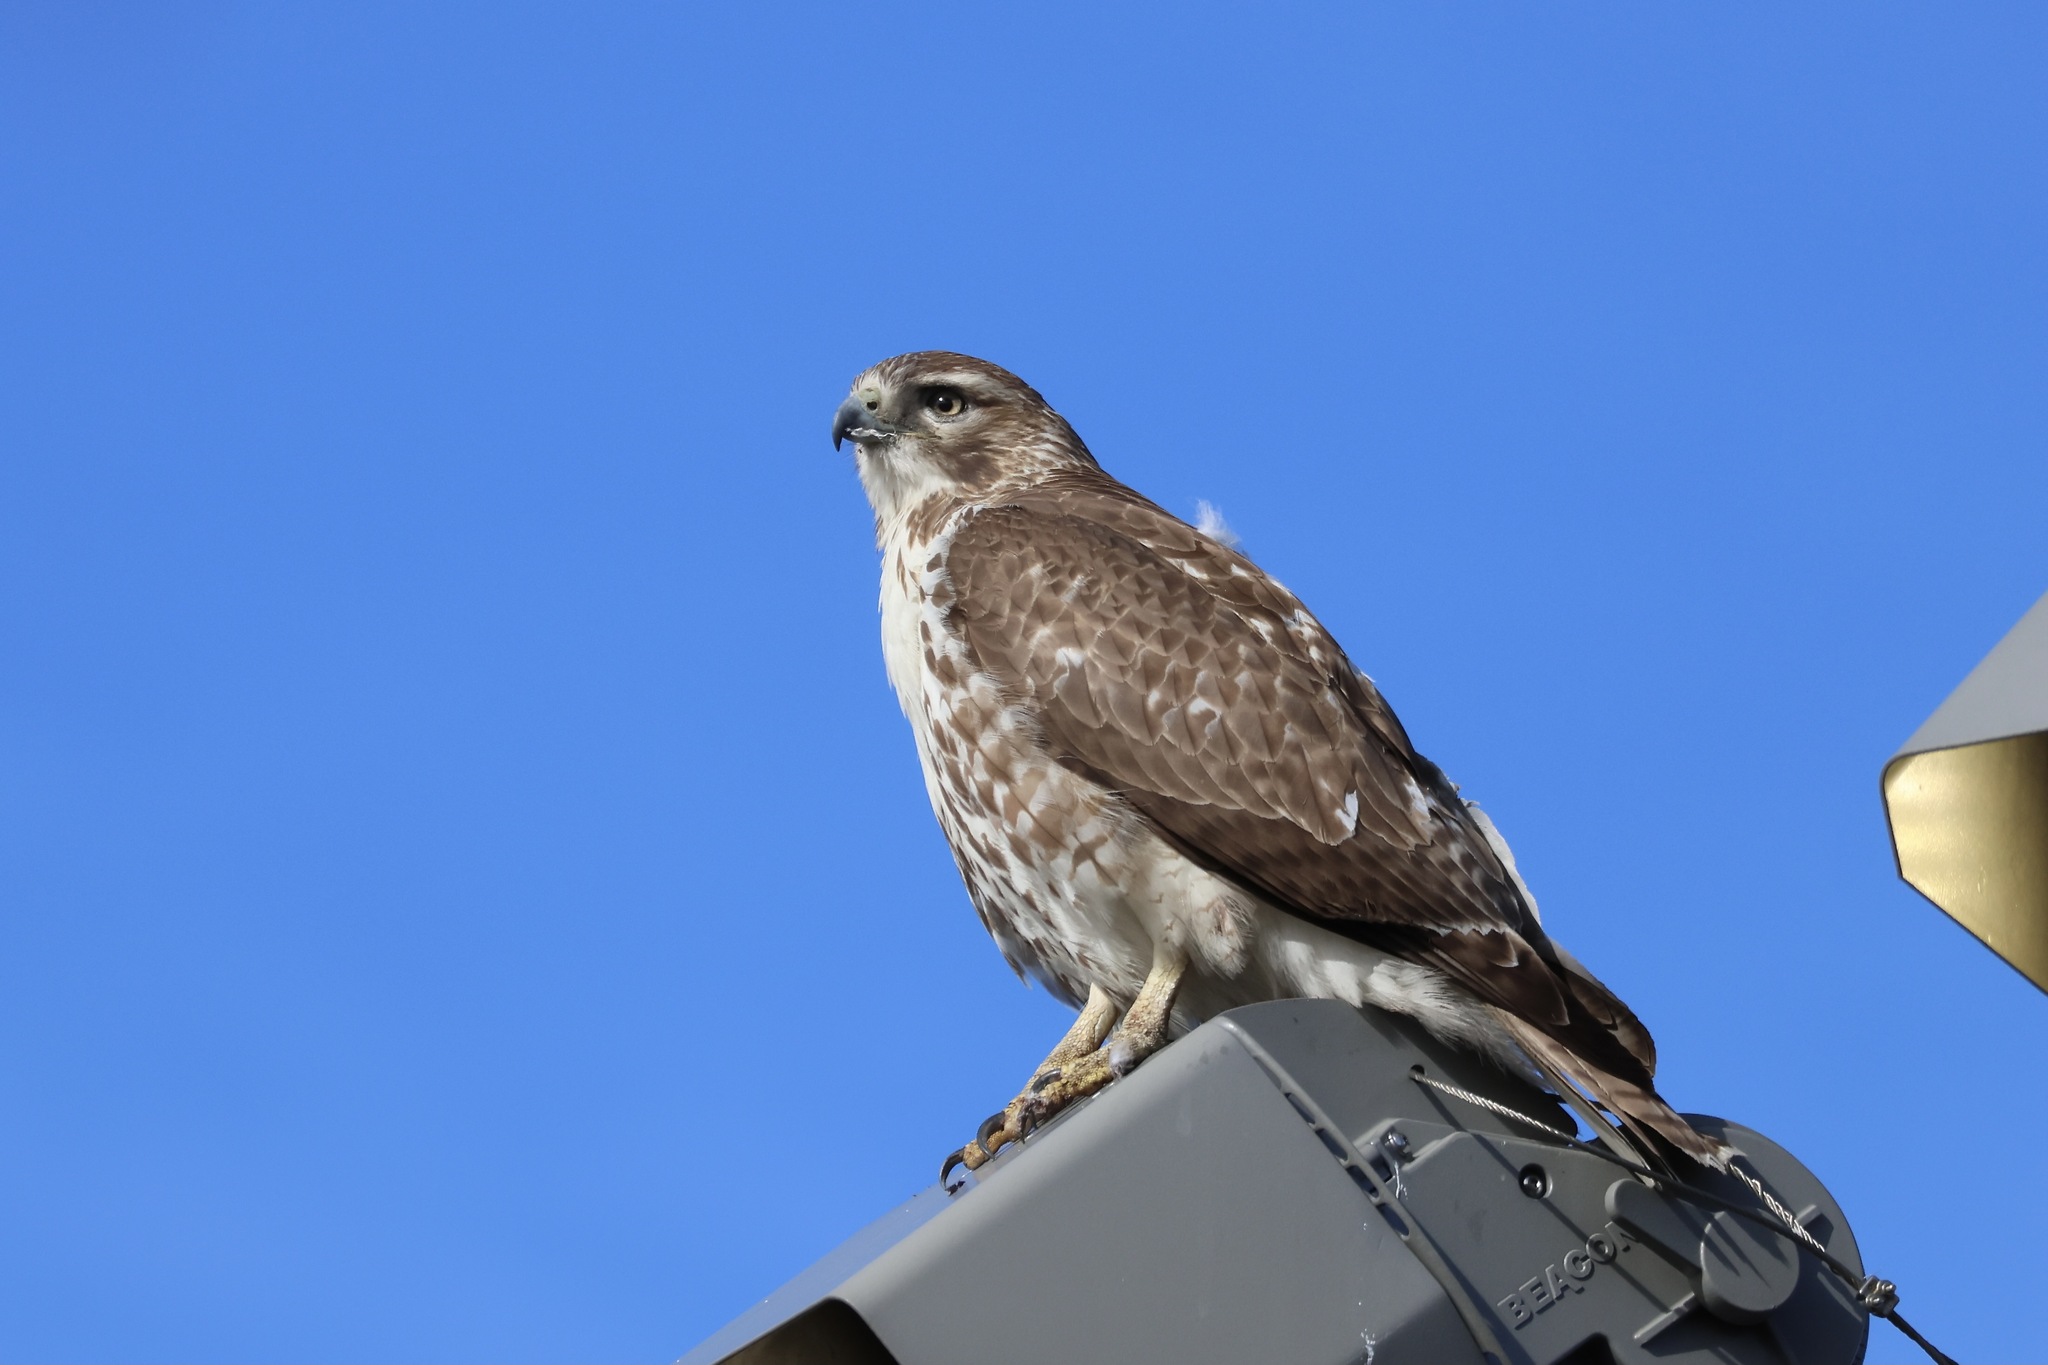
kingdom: Animalia
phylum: Chordata
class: Aves
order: Accipitriformes
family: Accipitridae
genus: Buteo
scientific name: Buteo jamaicensis
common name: Red-tailed hawk
